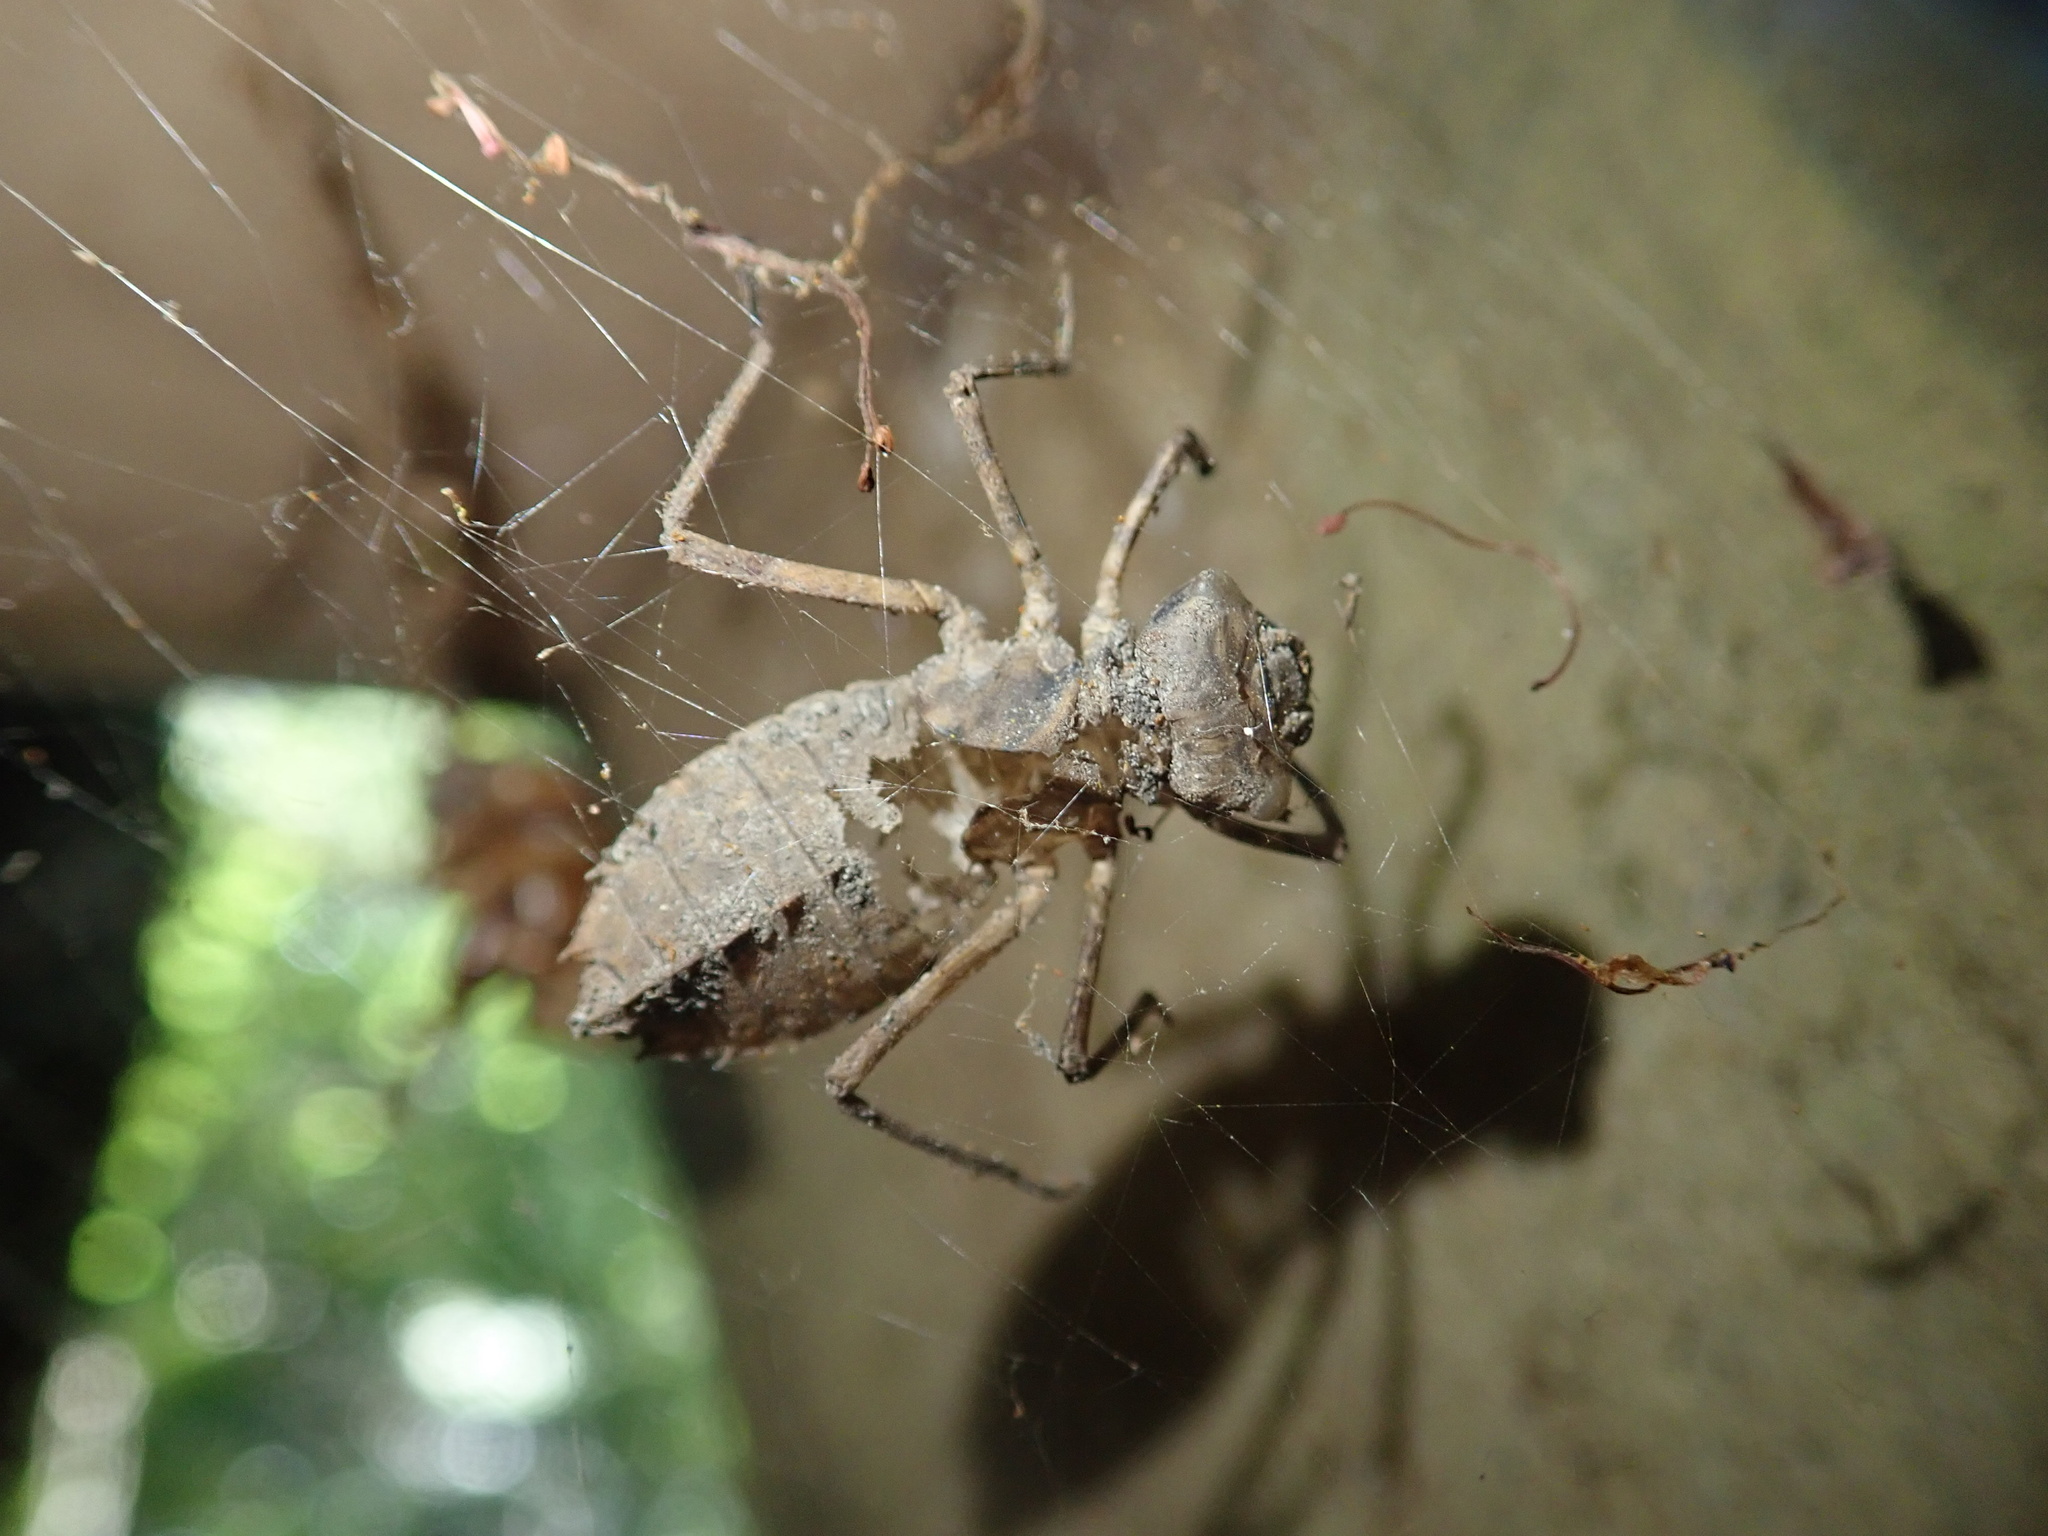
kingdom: Animalia
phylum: Arthropoda
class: Insecta
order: Odonata
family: Corduliidae
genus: Antipodochlora
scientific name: Antipodochlora braueri
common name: Dusk dragonfly
